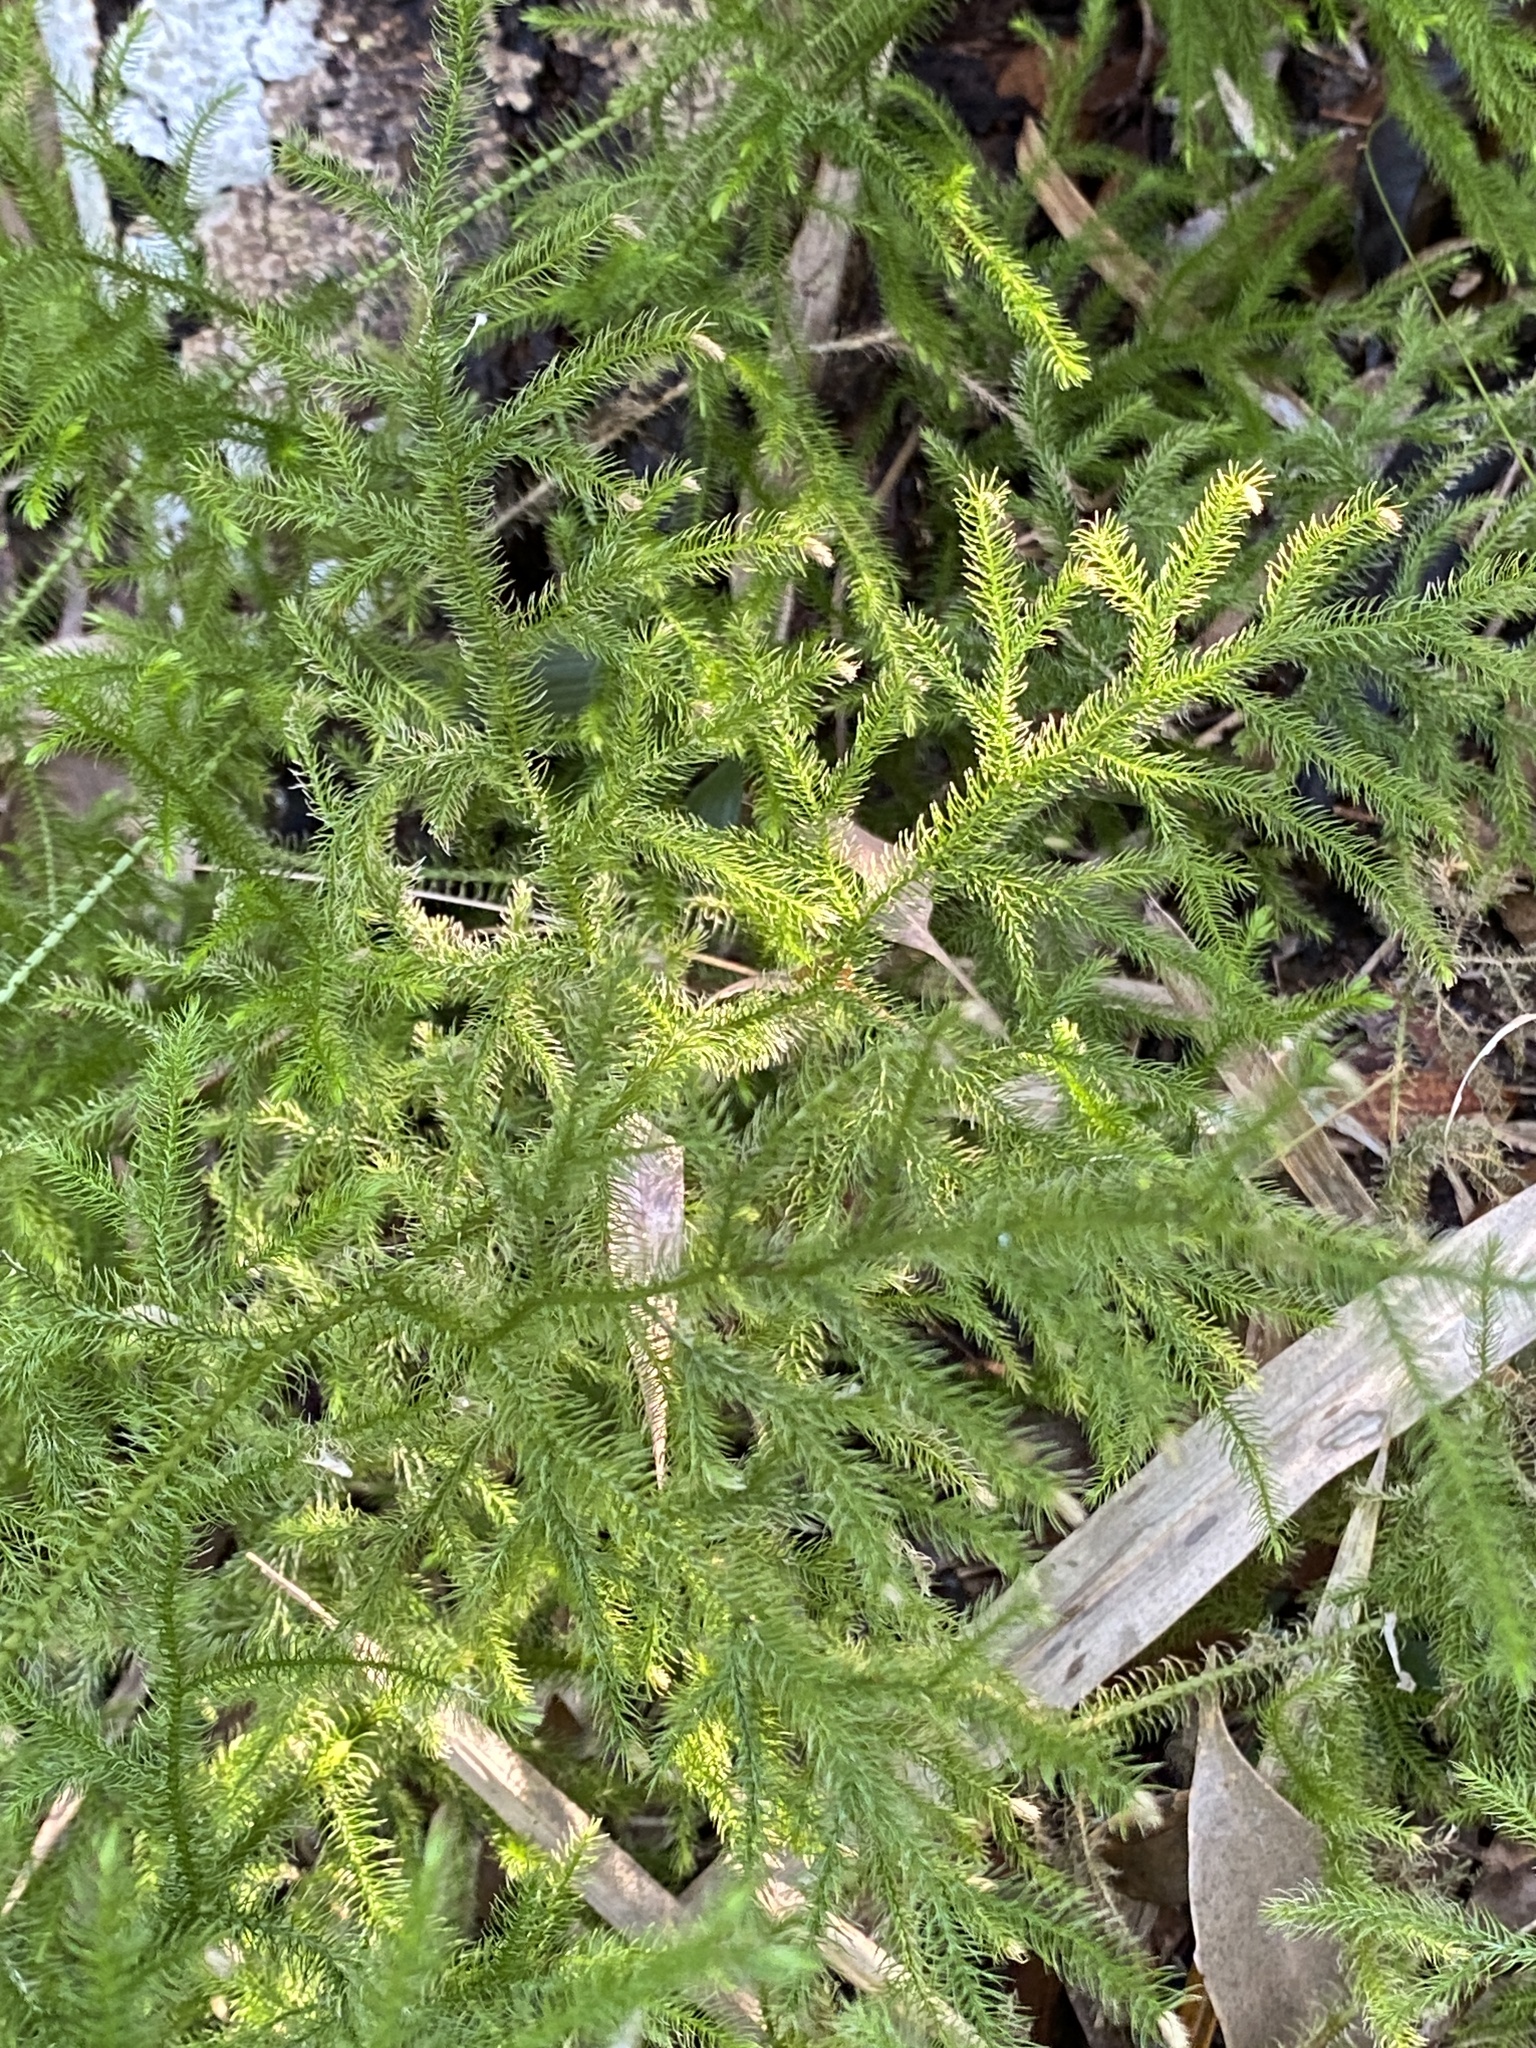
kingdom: Plantae
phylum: Tracheophyta
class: Lycopodiopsida
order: Lycopodiales
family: Lycopodiaceae
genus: Palhinhaea
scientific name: Palhinhaea cernua
